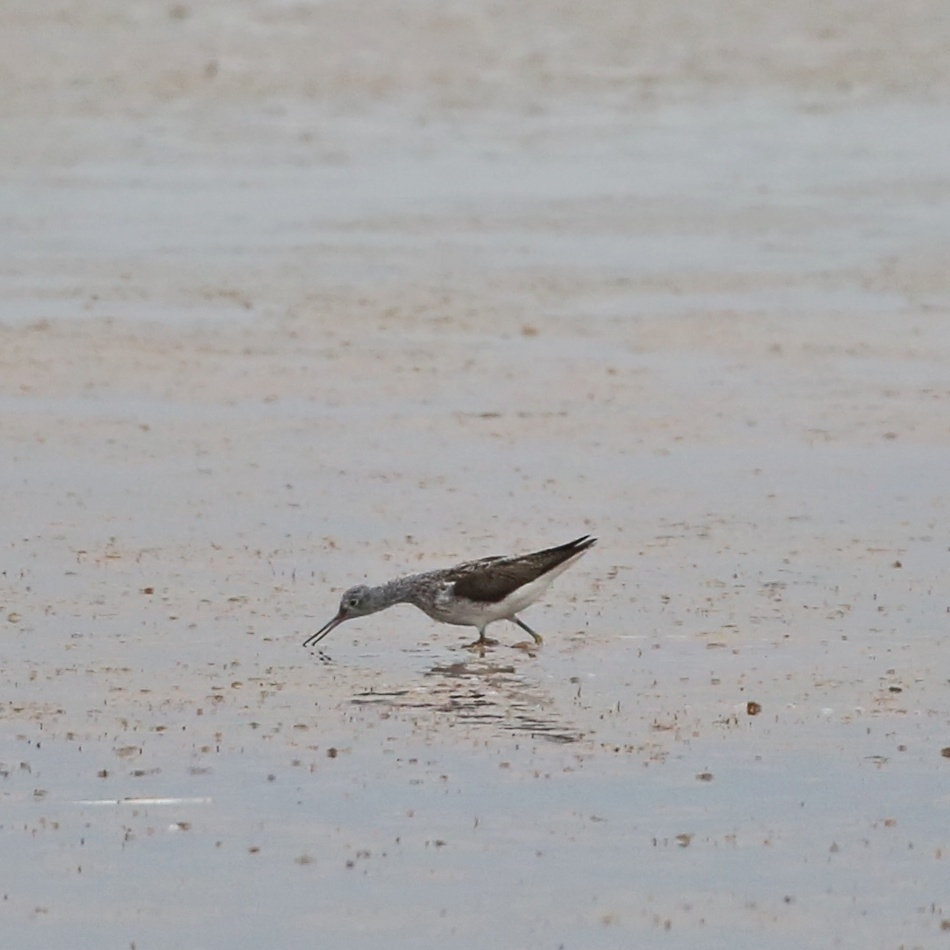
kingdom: Animalia
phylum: Chordata
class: Aves
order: Charadriiformes
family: Scolopacidae
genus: Tringa
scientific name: Tringa stagnatilis
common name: Marsh sandpiper
